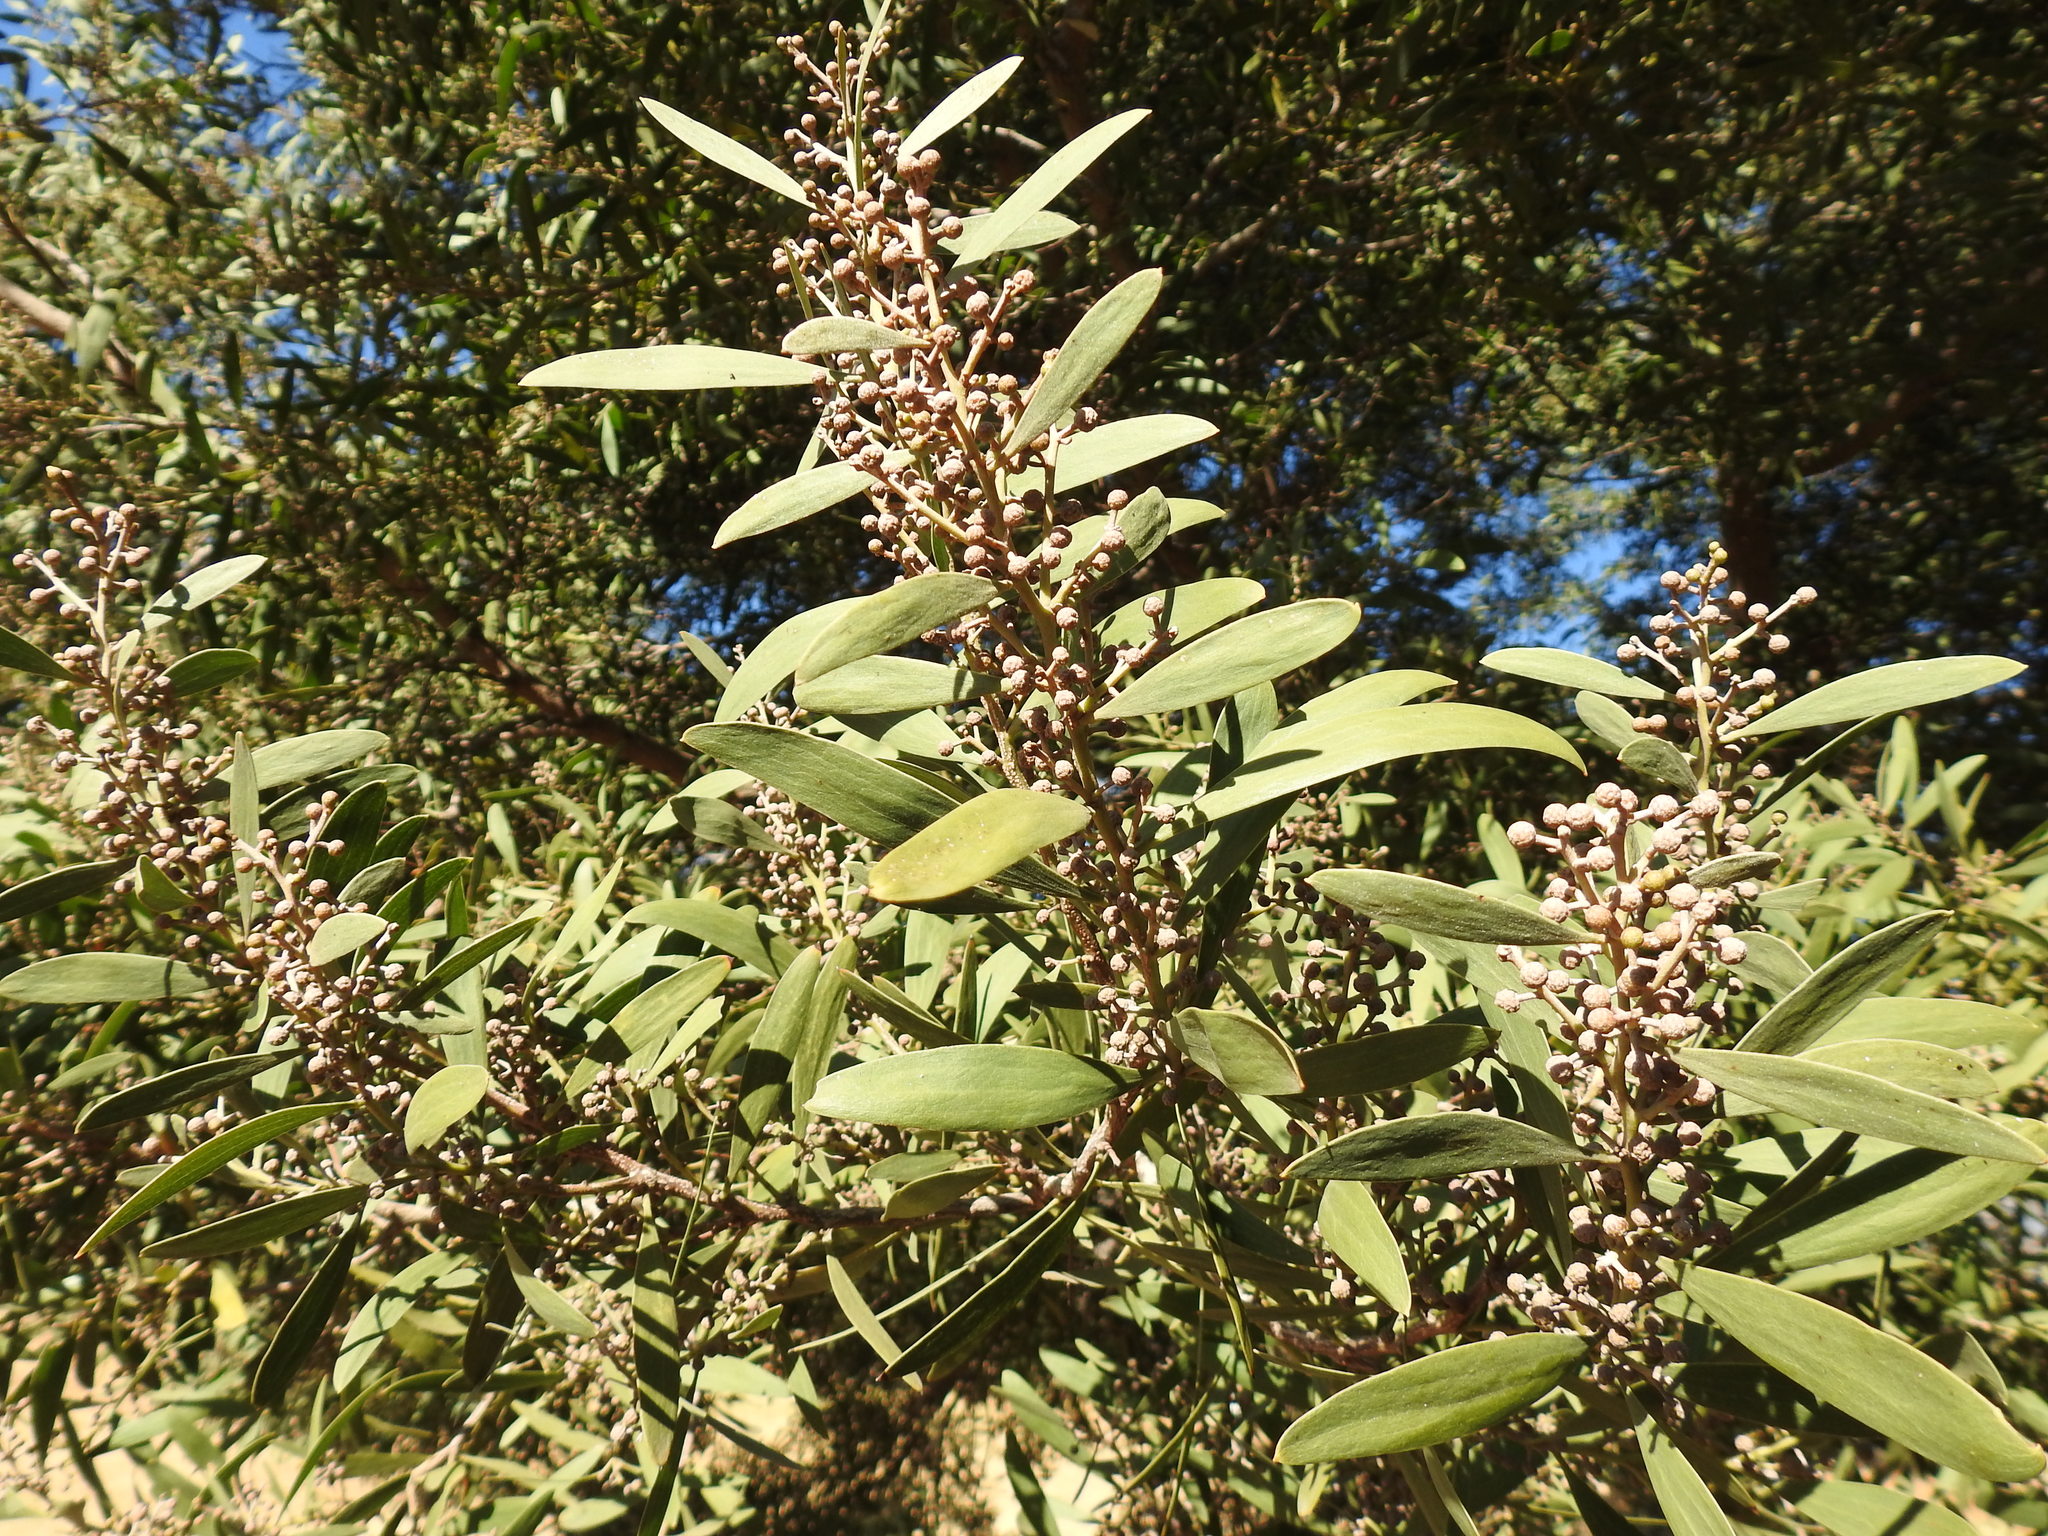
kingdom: Plantae
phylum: Tracheophyta
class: Magnoliopsida
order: Fabales
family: Fabaceae
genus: Acacia
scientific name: Acacia melanoxylon
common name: Blackwood
